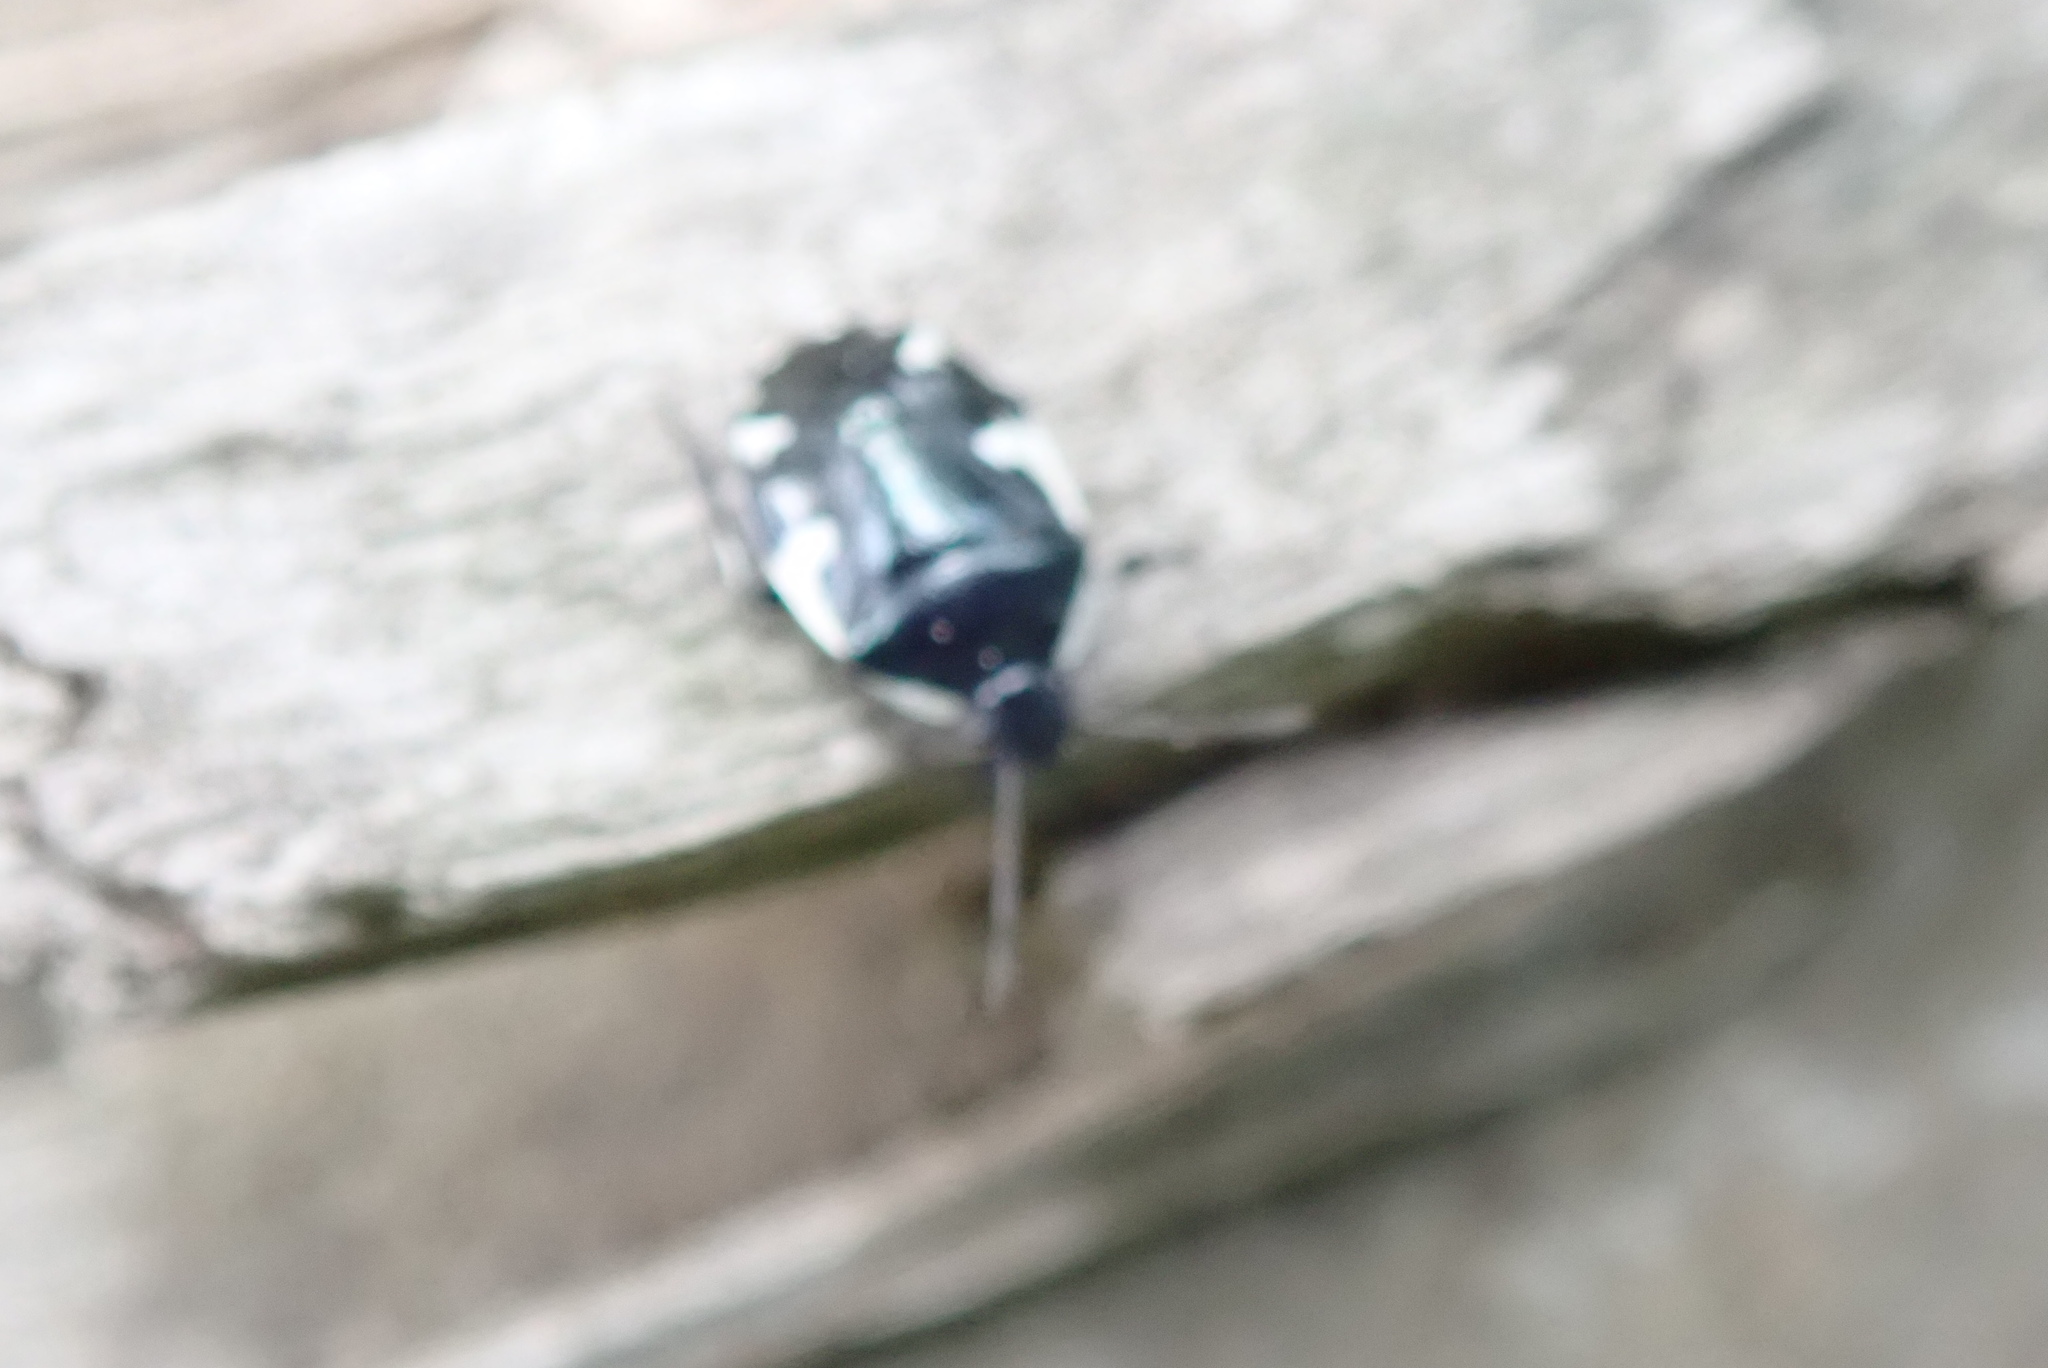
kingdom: Animalia
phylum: Arthropoda
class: Insecta
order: Hemiptera
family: Cydnidae
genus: Tritomegas
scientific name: Tritomegas sexmaculatus
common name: Rambur's pied shieldbug
